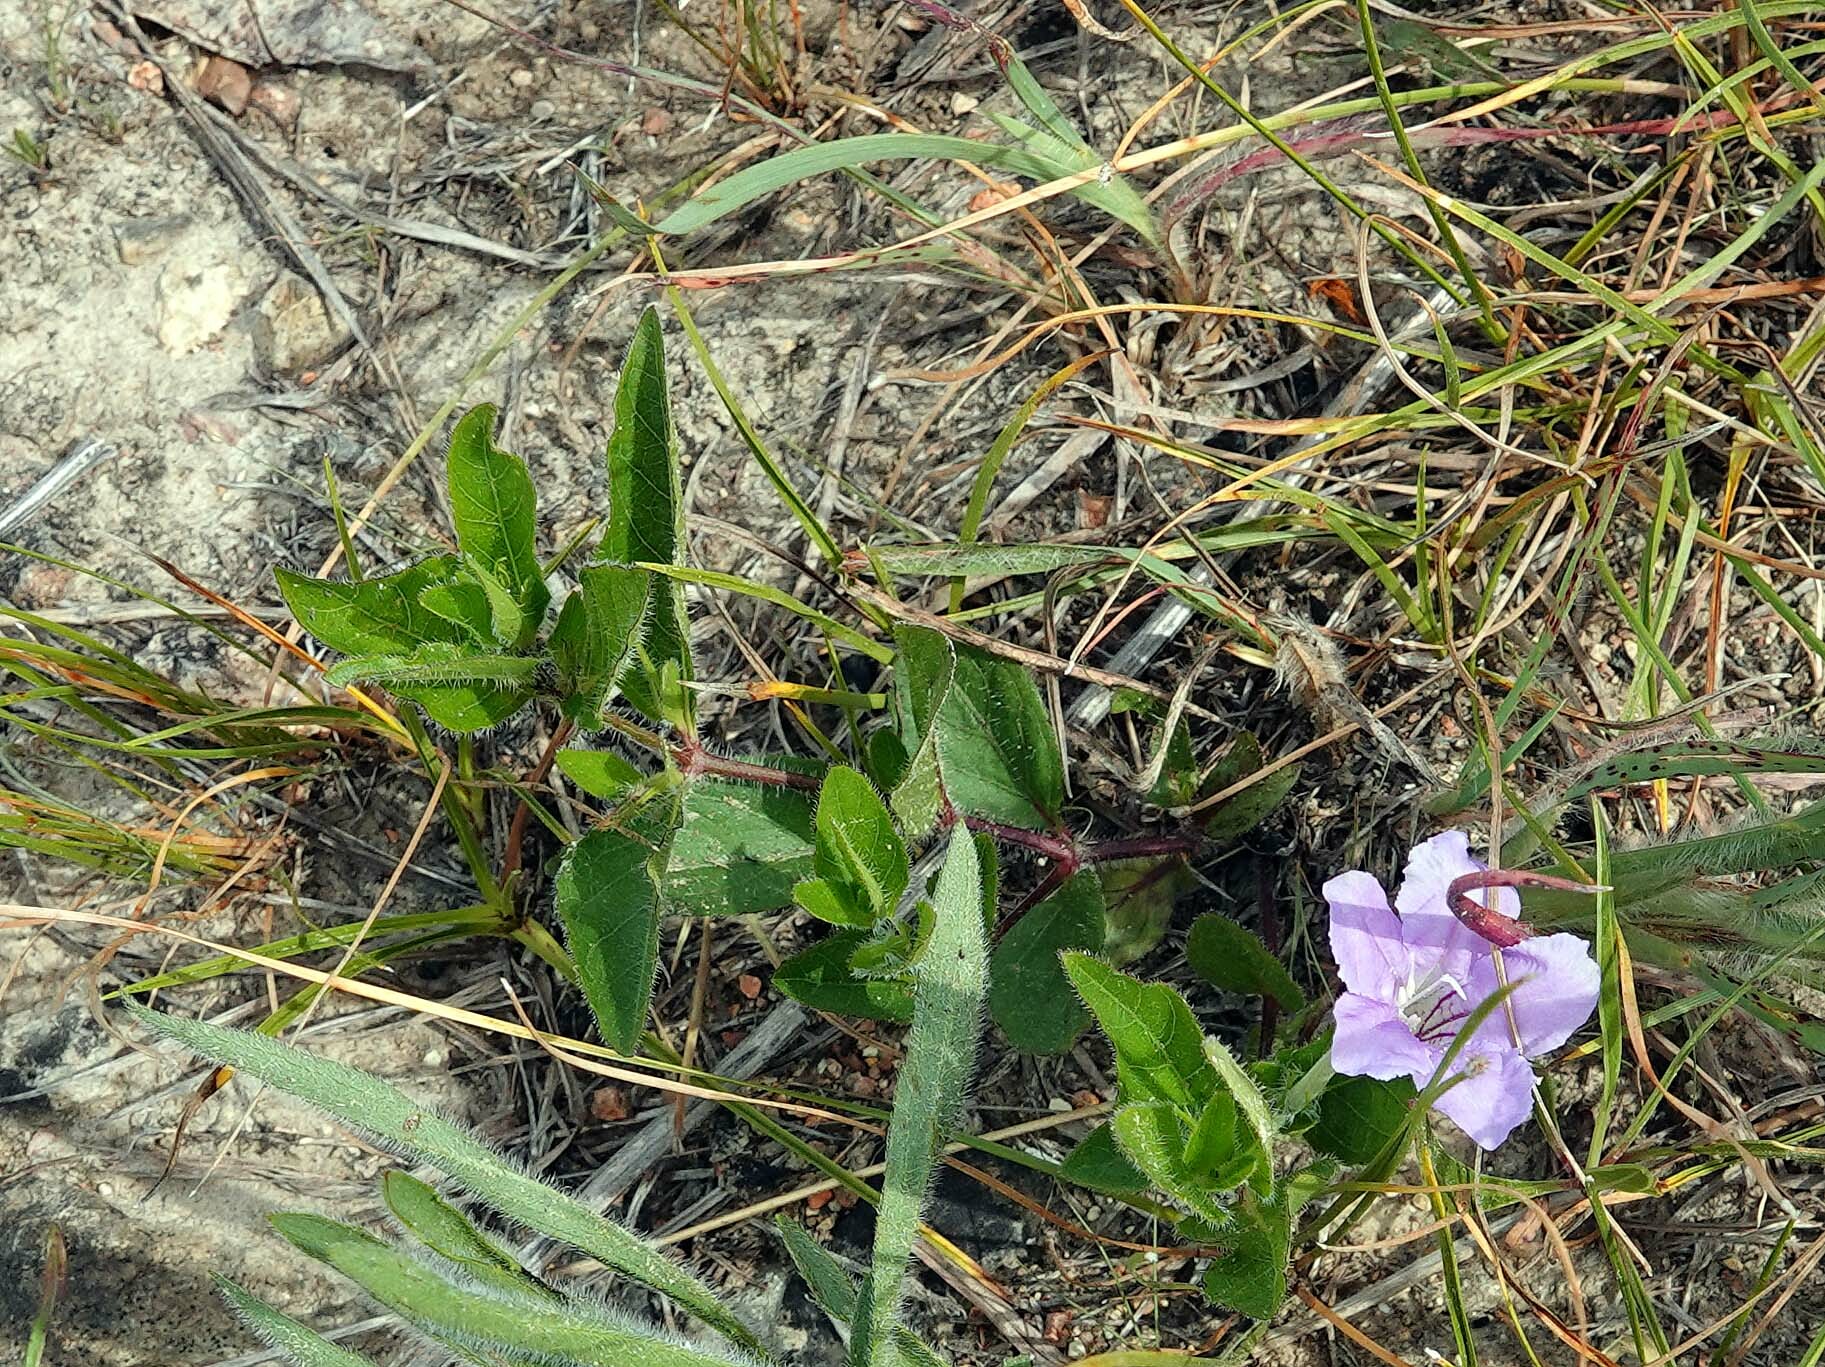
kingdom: Plantae
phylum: Tracheophyta
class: Magnoliopsida
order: Lamiales
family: Acanthaceae
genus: Ruellia
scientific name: Ruellia humilis
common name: Fringe-leaf ruellia
